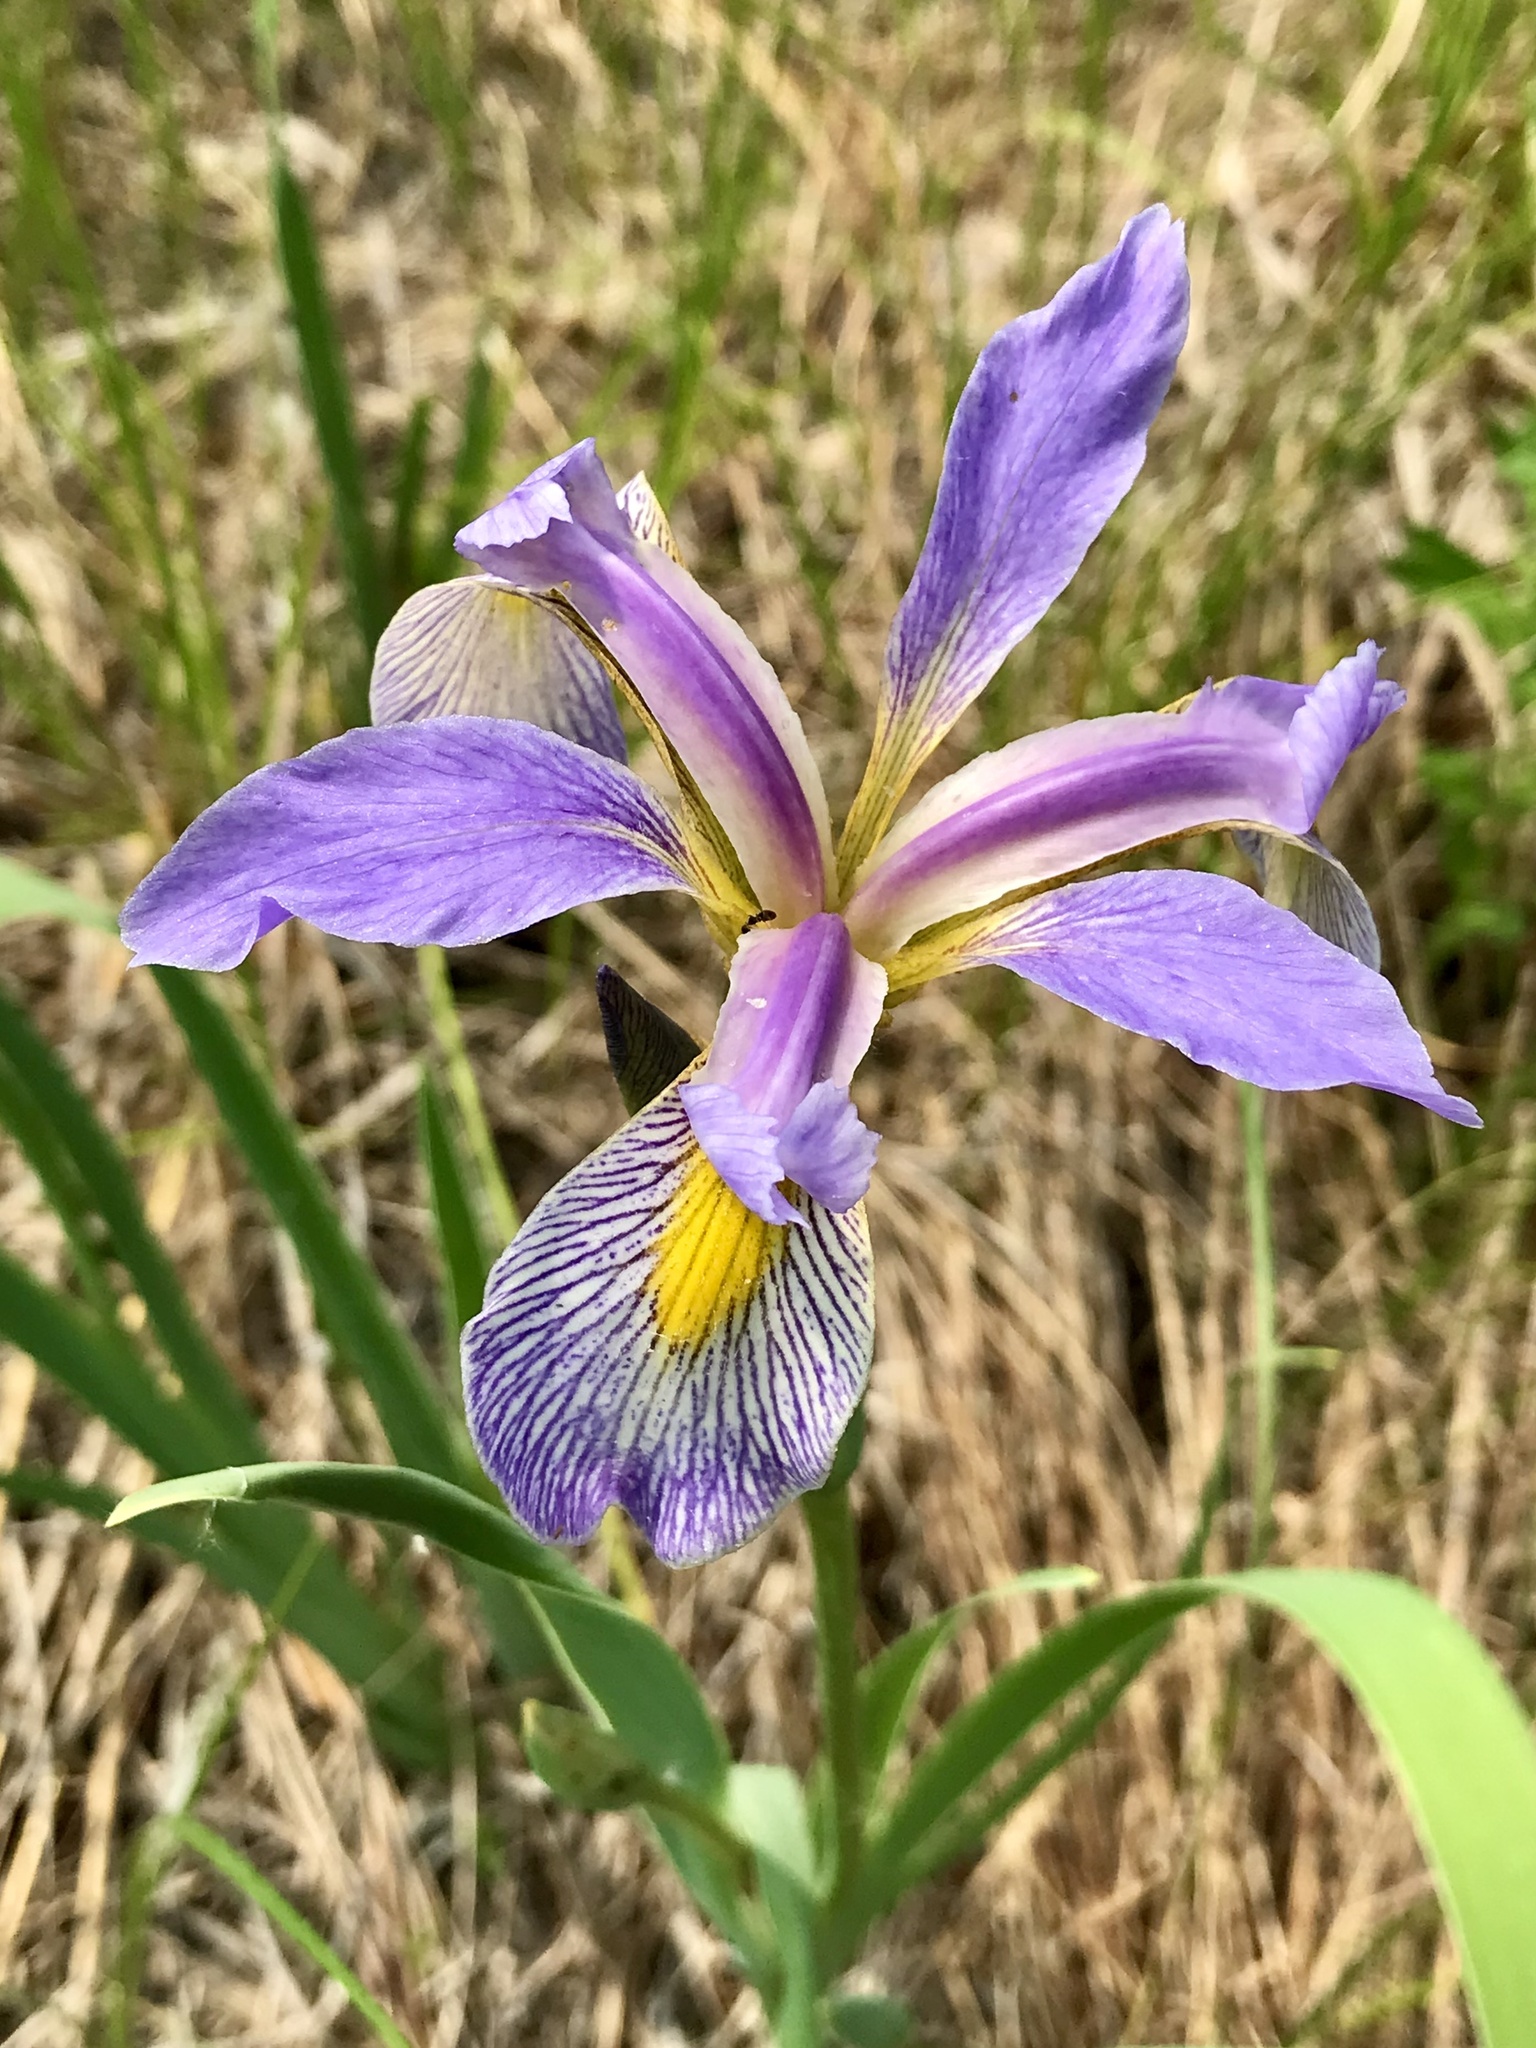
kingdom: Plantae
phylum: Tracheophyta
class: Liliopsida
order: Asparagales
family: Iridaceae
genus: Iris
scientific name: Iris virginica
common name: Southern blue flag
